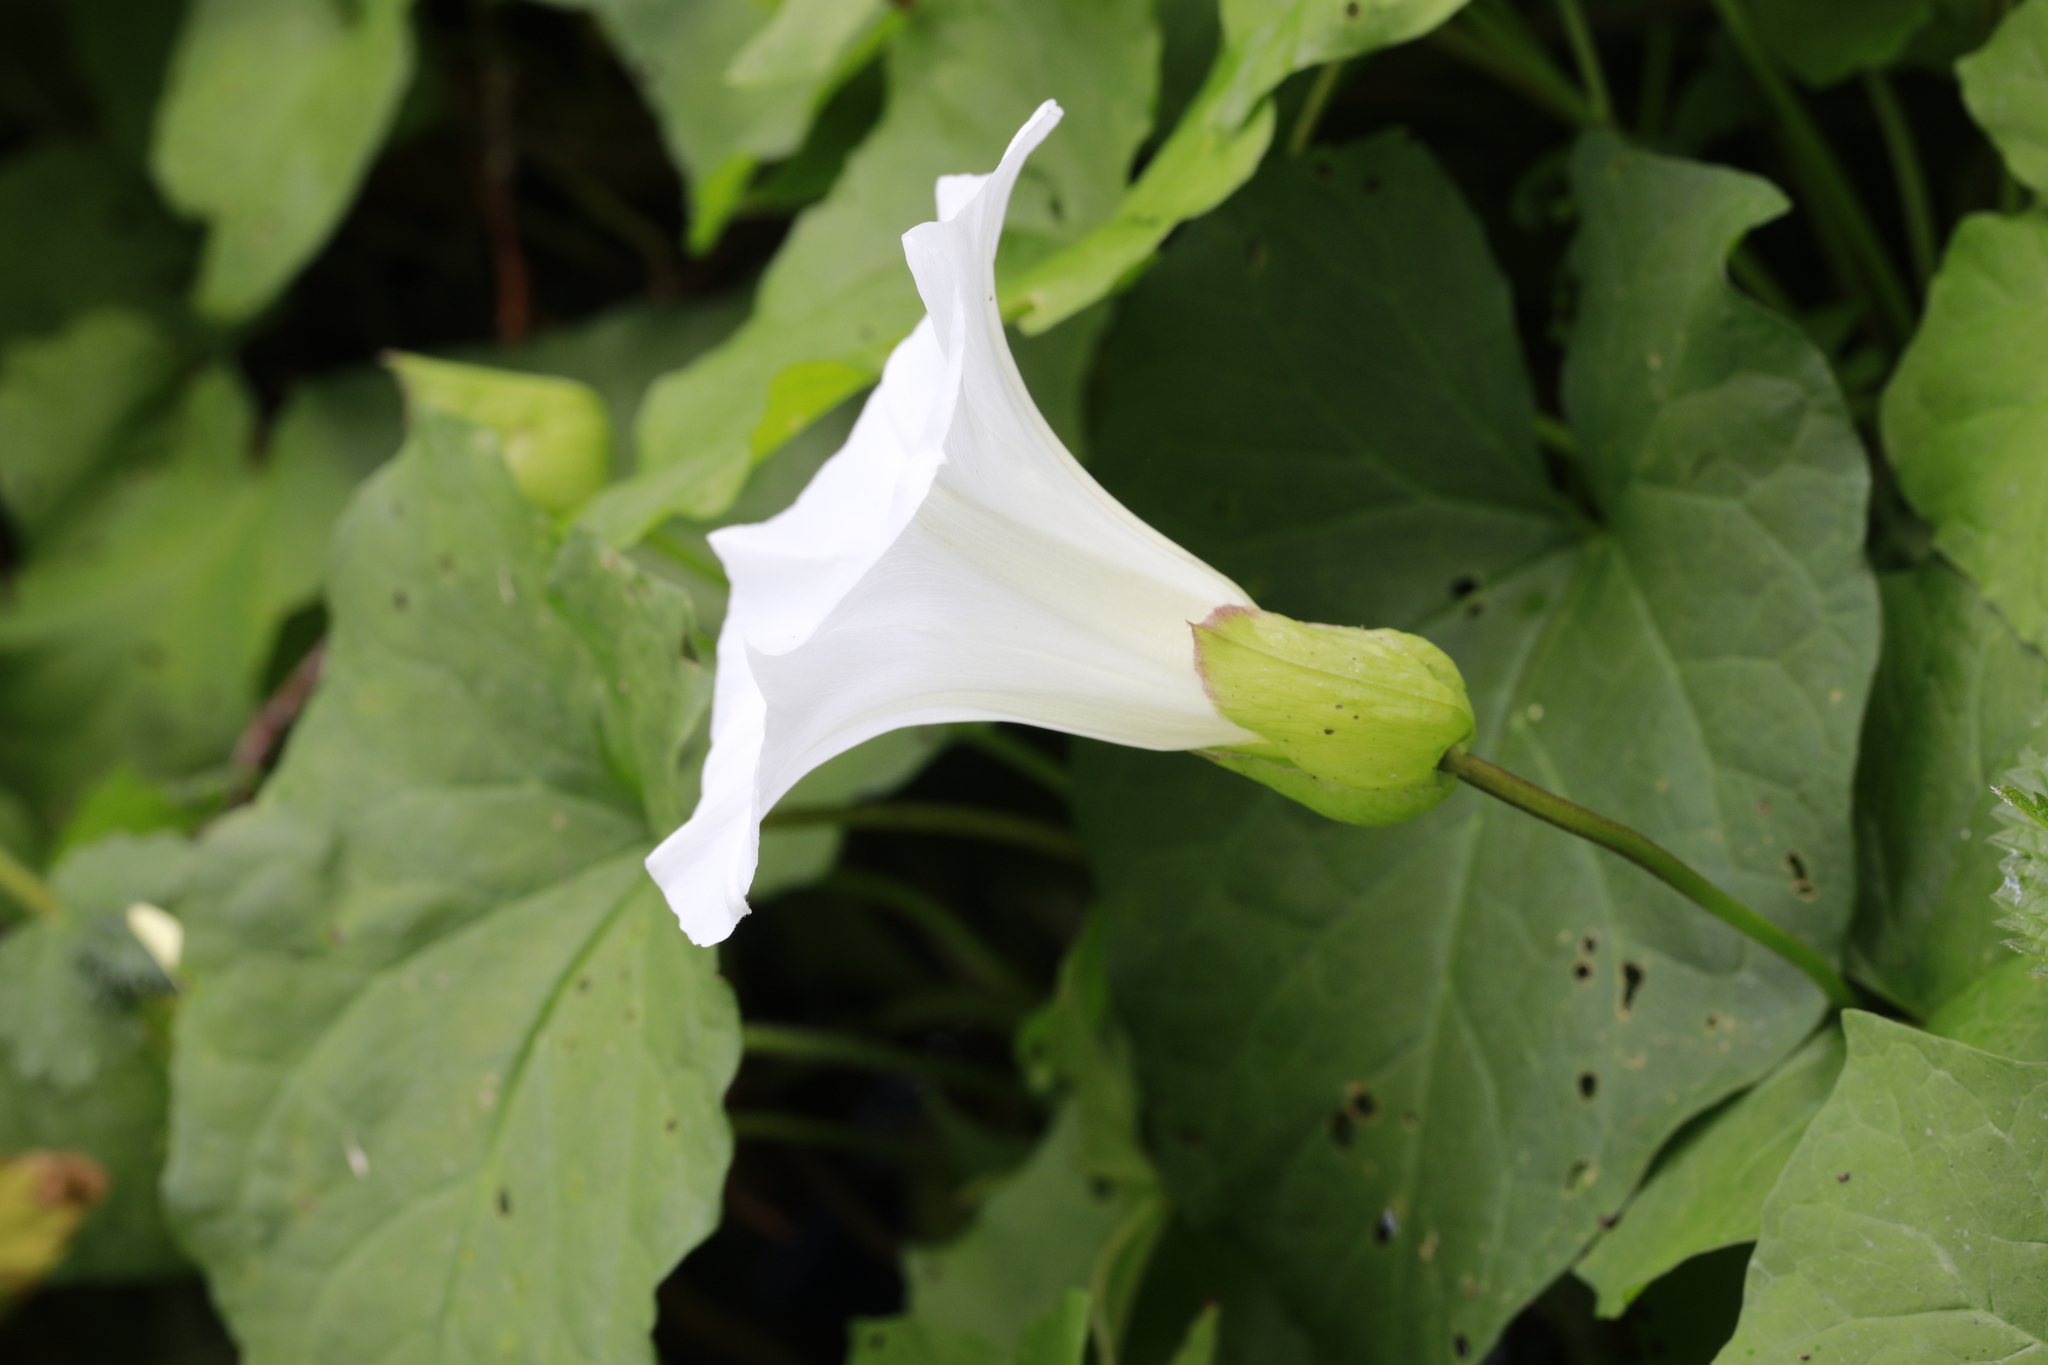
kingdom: Plantae
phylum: Tracheophyta
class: Magnoliopsida
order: Solanales
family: Convolvulaceae
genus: Calystegia
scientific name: Calystegia silvatica
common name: Large bindweed
